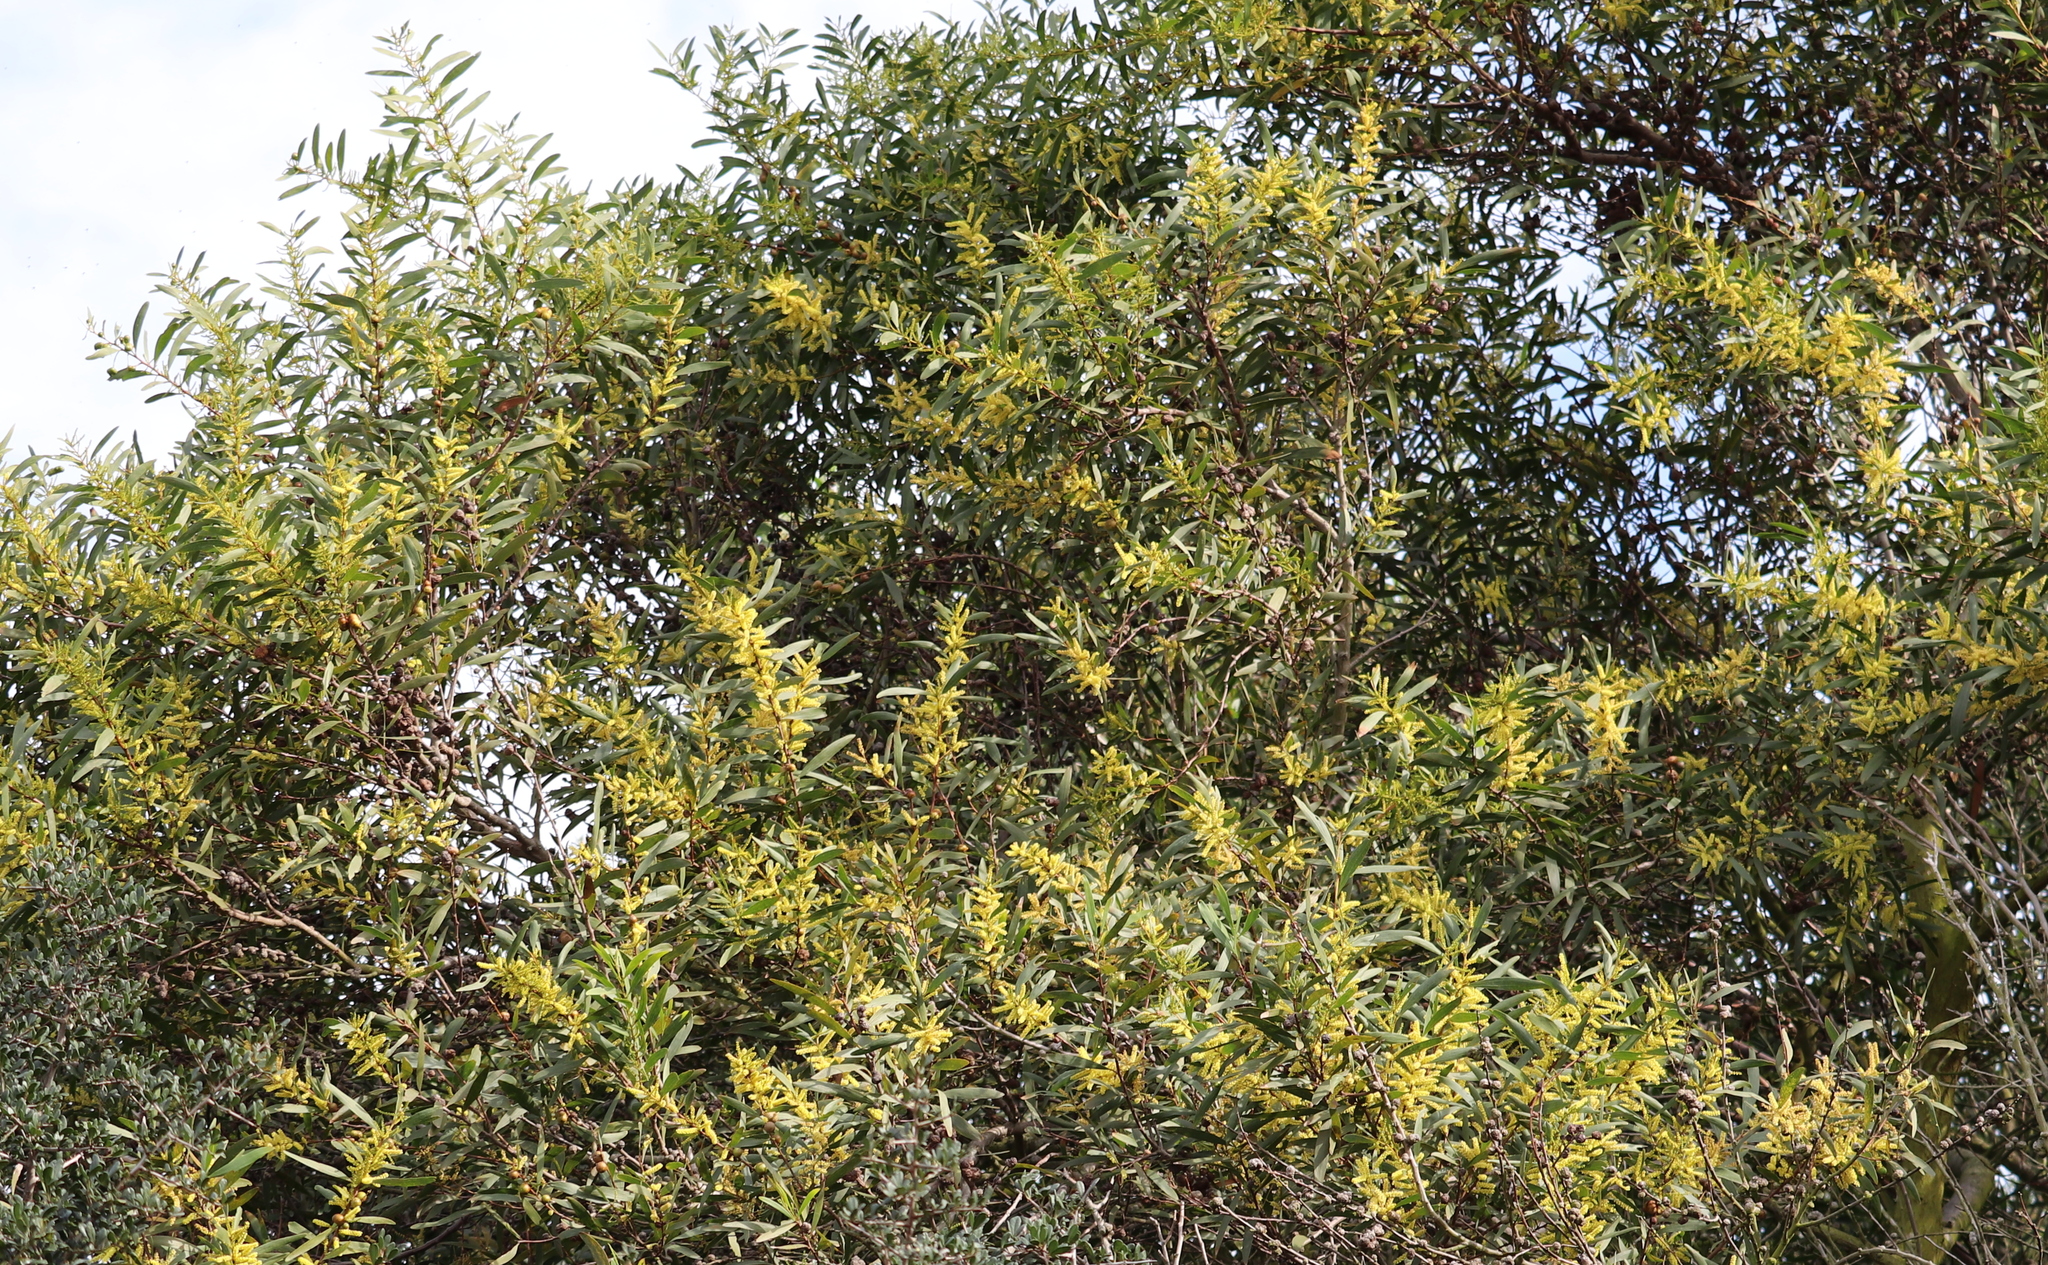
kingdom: Plantae
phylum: Tracheophyta
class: Magnoliopsida
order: Fabales
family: Fabaceae
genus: Acacia
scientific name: Acacia longifolia
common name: Sydney golden wattle
